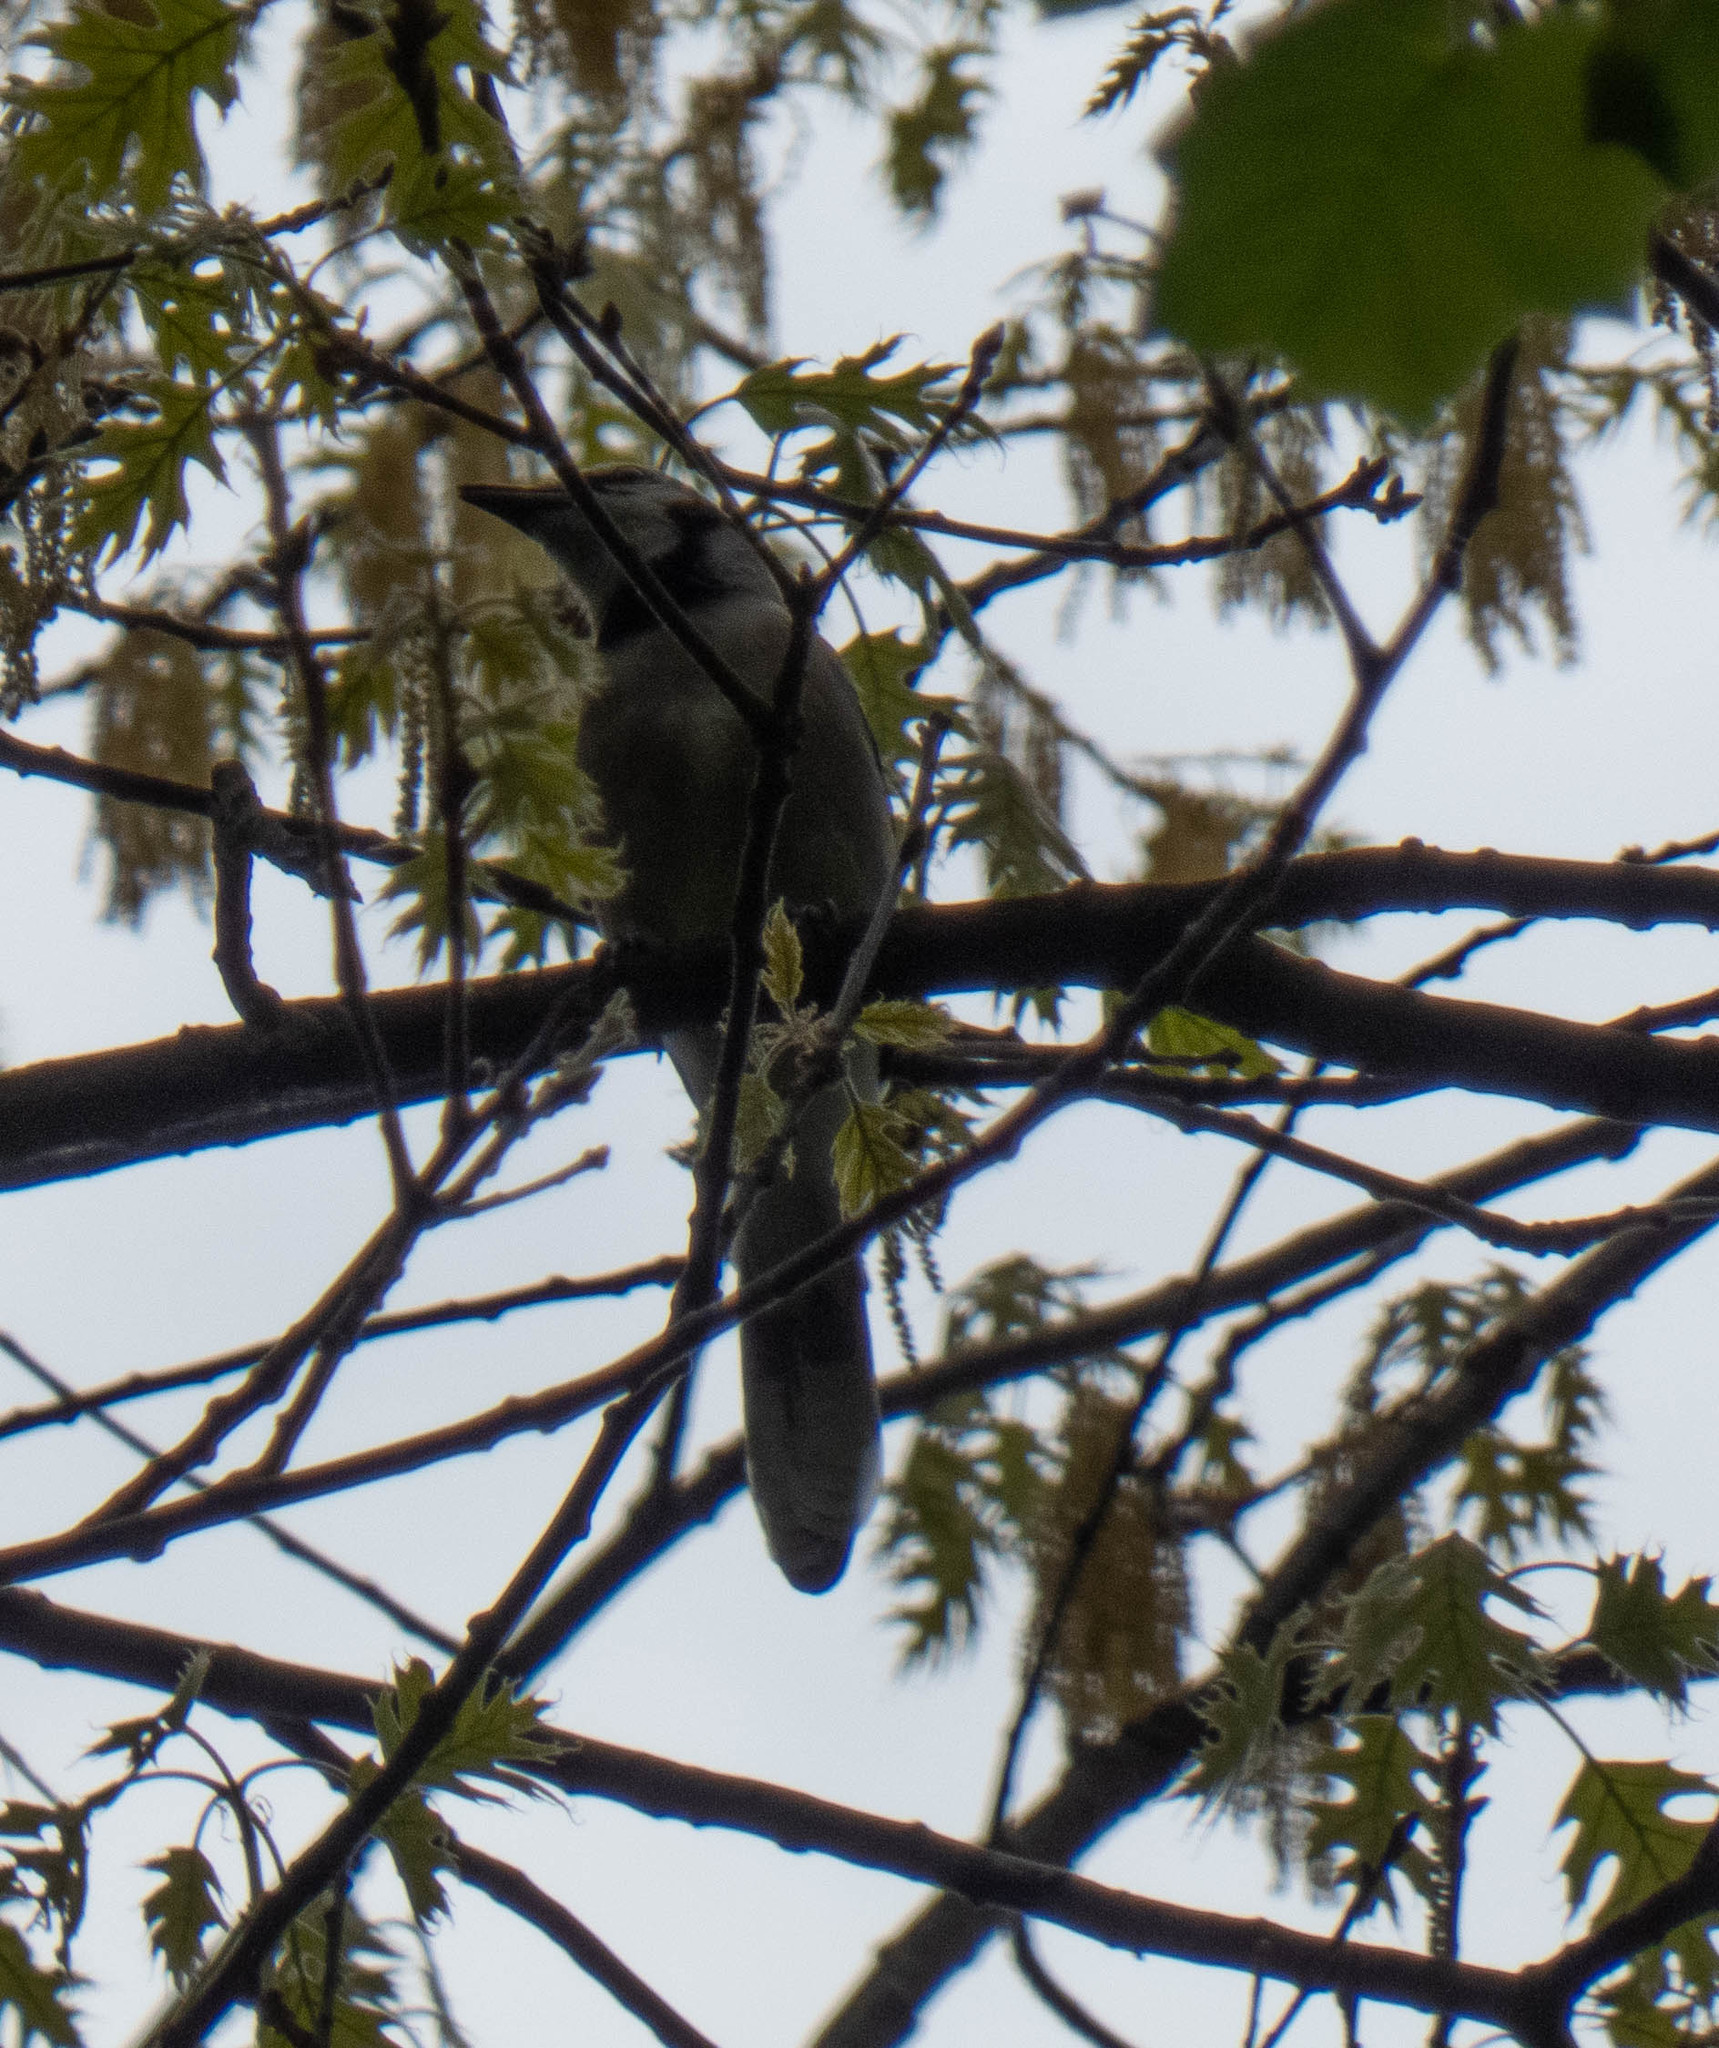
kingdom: Animalia
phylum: Chordata
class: Aves
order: Passeriformes
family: Corvidae
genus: Cyanocitta
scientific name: Cyanocitta cristata
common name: Blue jay
